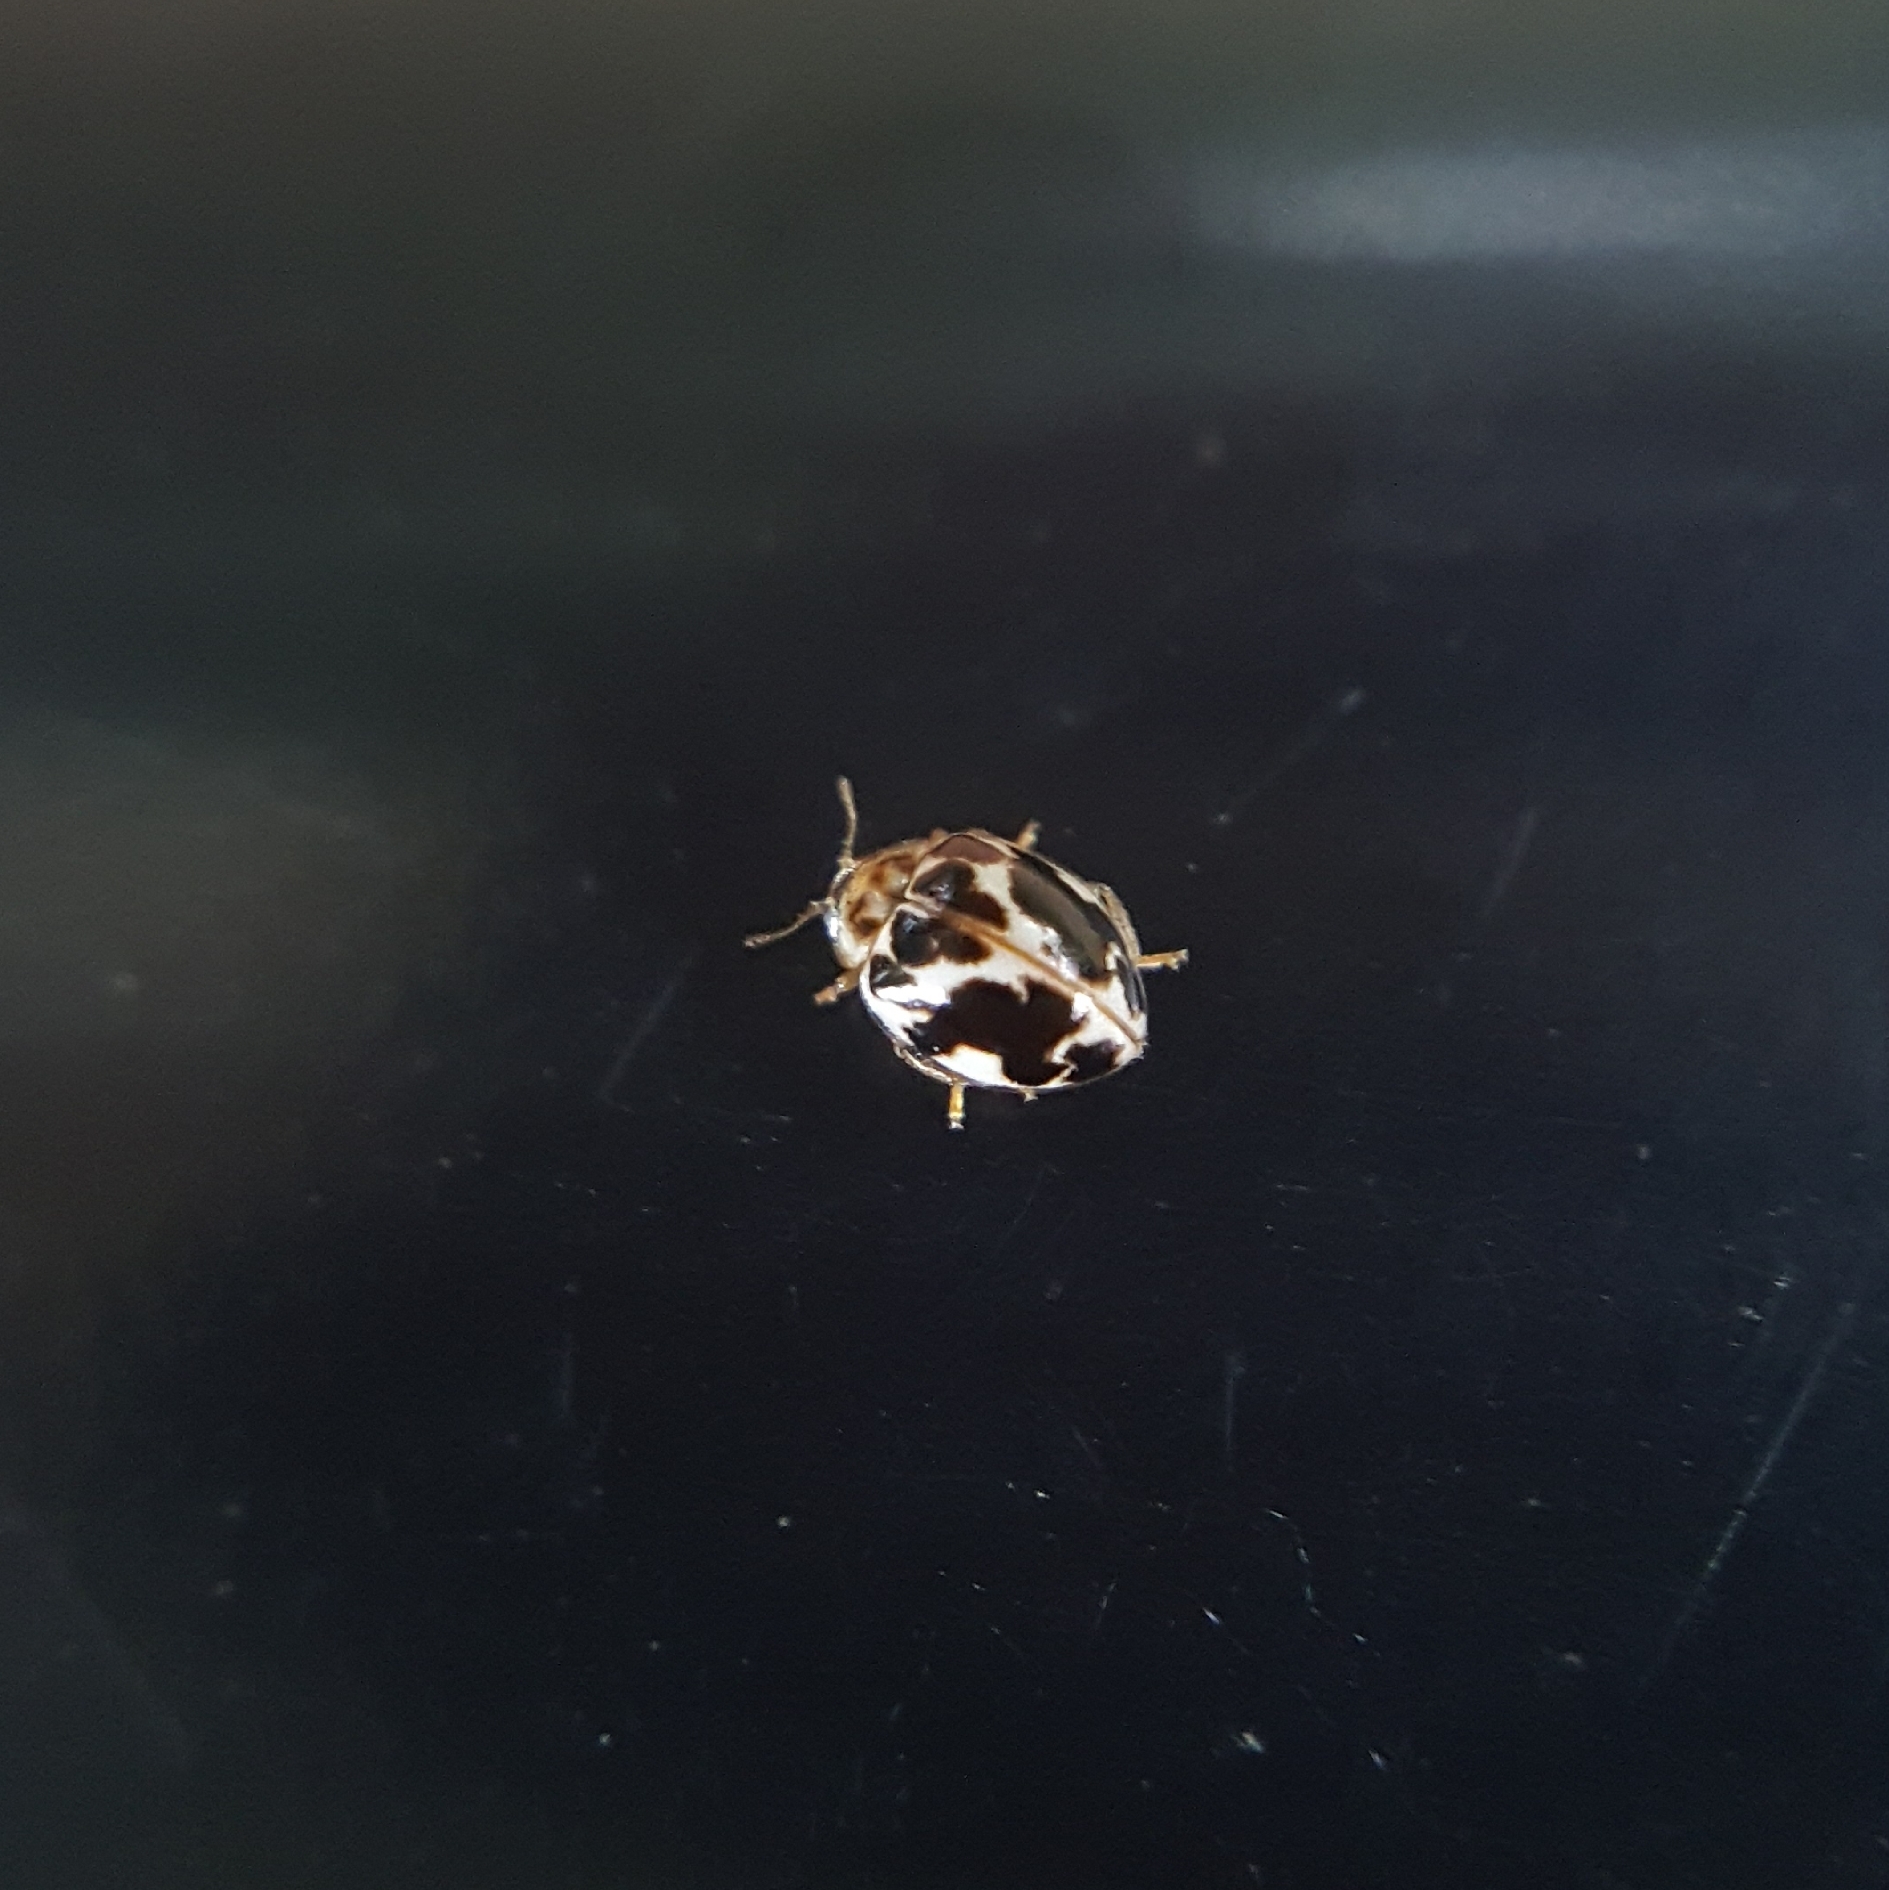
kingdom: Animalia
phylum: Arthropoda
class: Insecta
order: Coleoptera
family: Coccinellidae
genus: Psyllobora
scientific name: Psyllobora vigintimaculata
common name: Ladybird beetle
